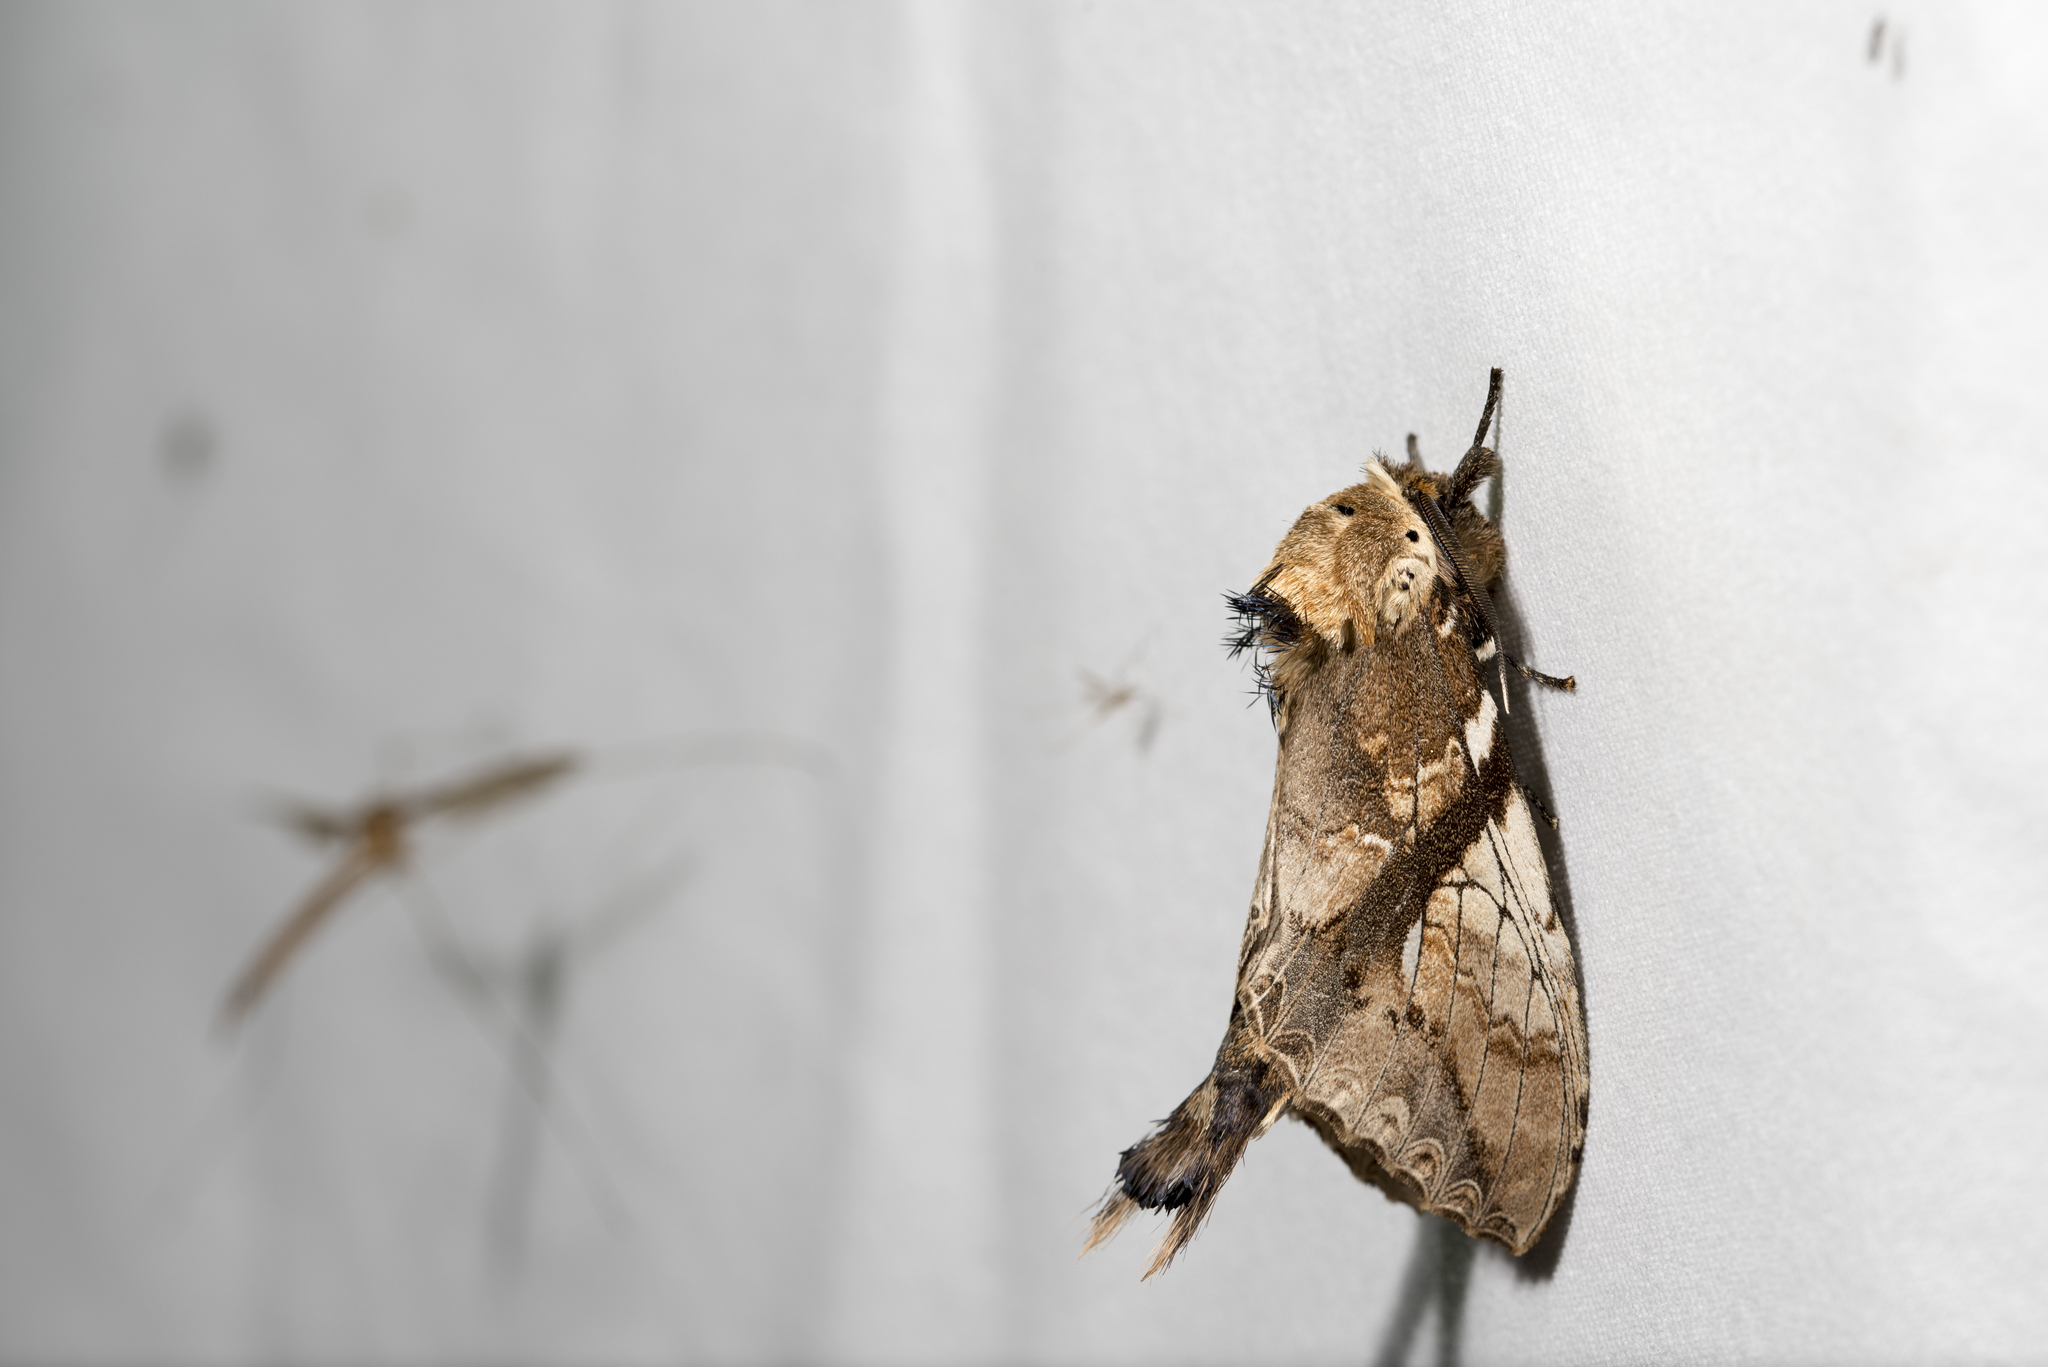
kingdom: Animalia
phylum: Arthropoda
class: Insecta
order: Lepidoptera
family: Notodontidae
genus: Dudusa
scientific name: Dudusa nobilis
